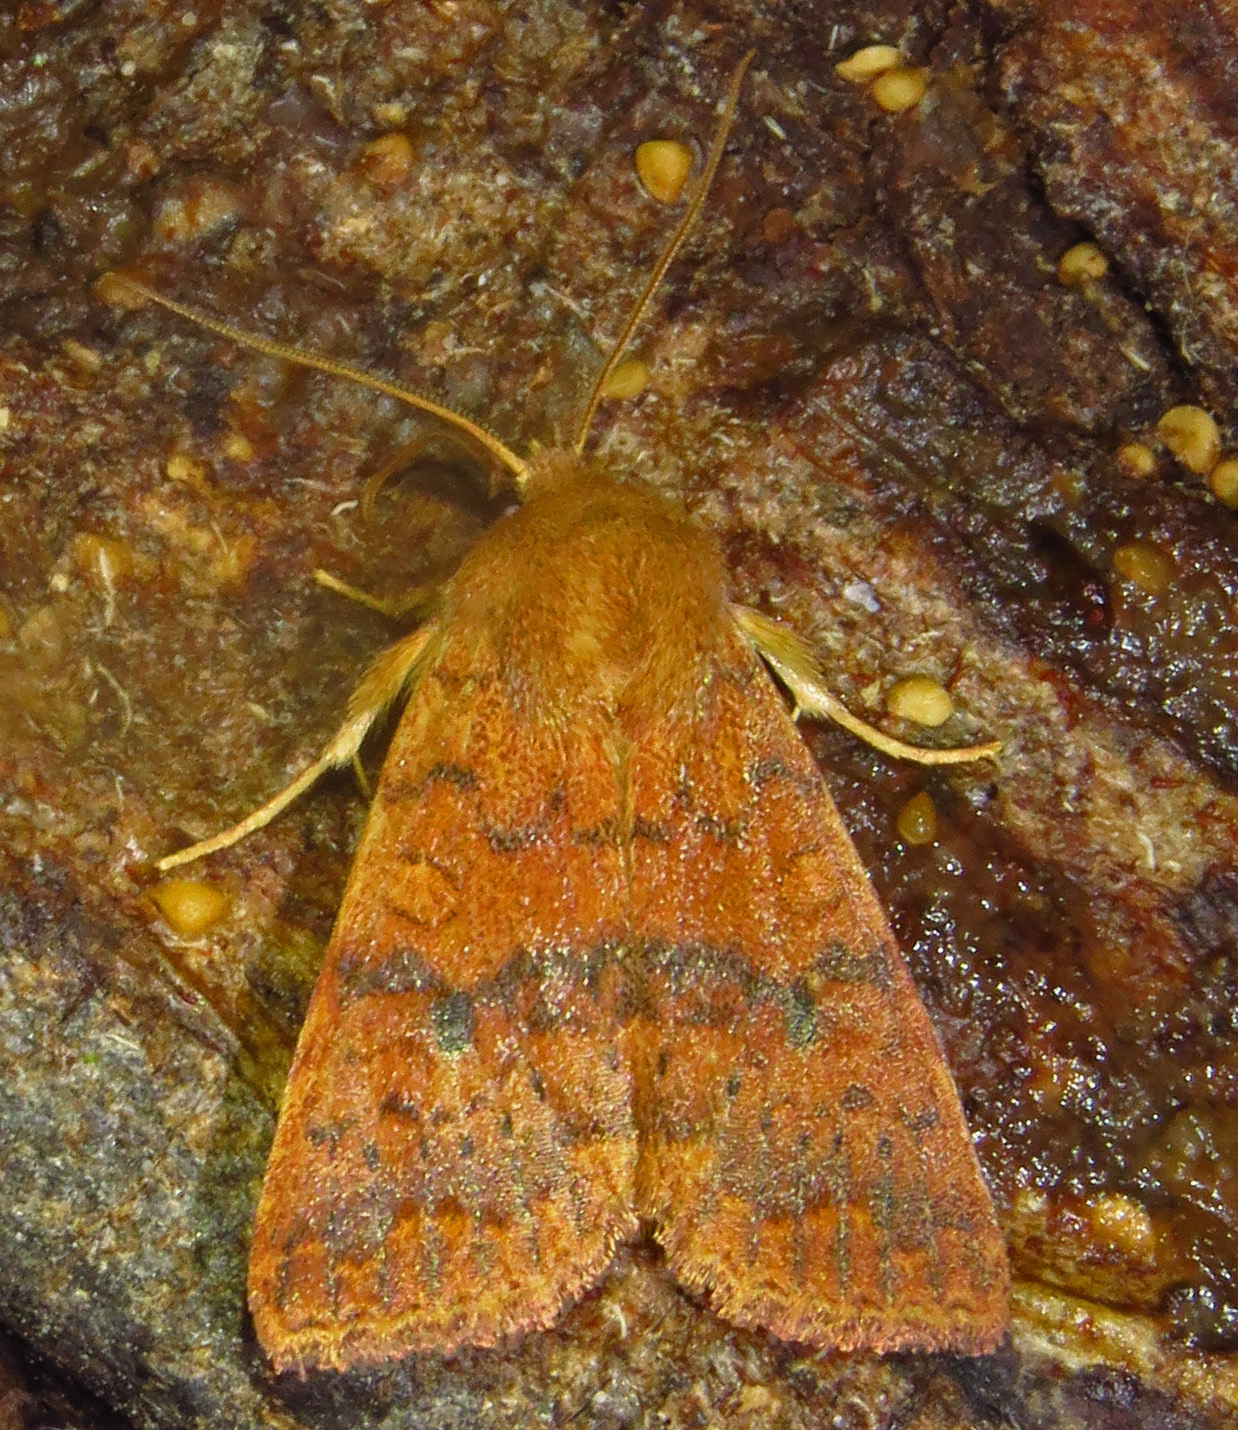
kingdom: Animalia
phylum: Arthropoda
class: Insecta
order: Lepidoptera
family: Noctuidae
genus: Agrochola
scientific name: Agrochola bicolorago
